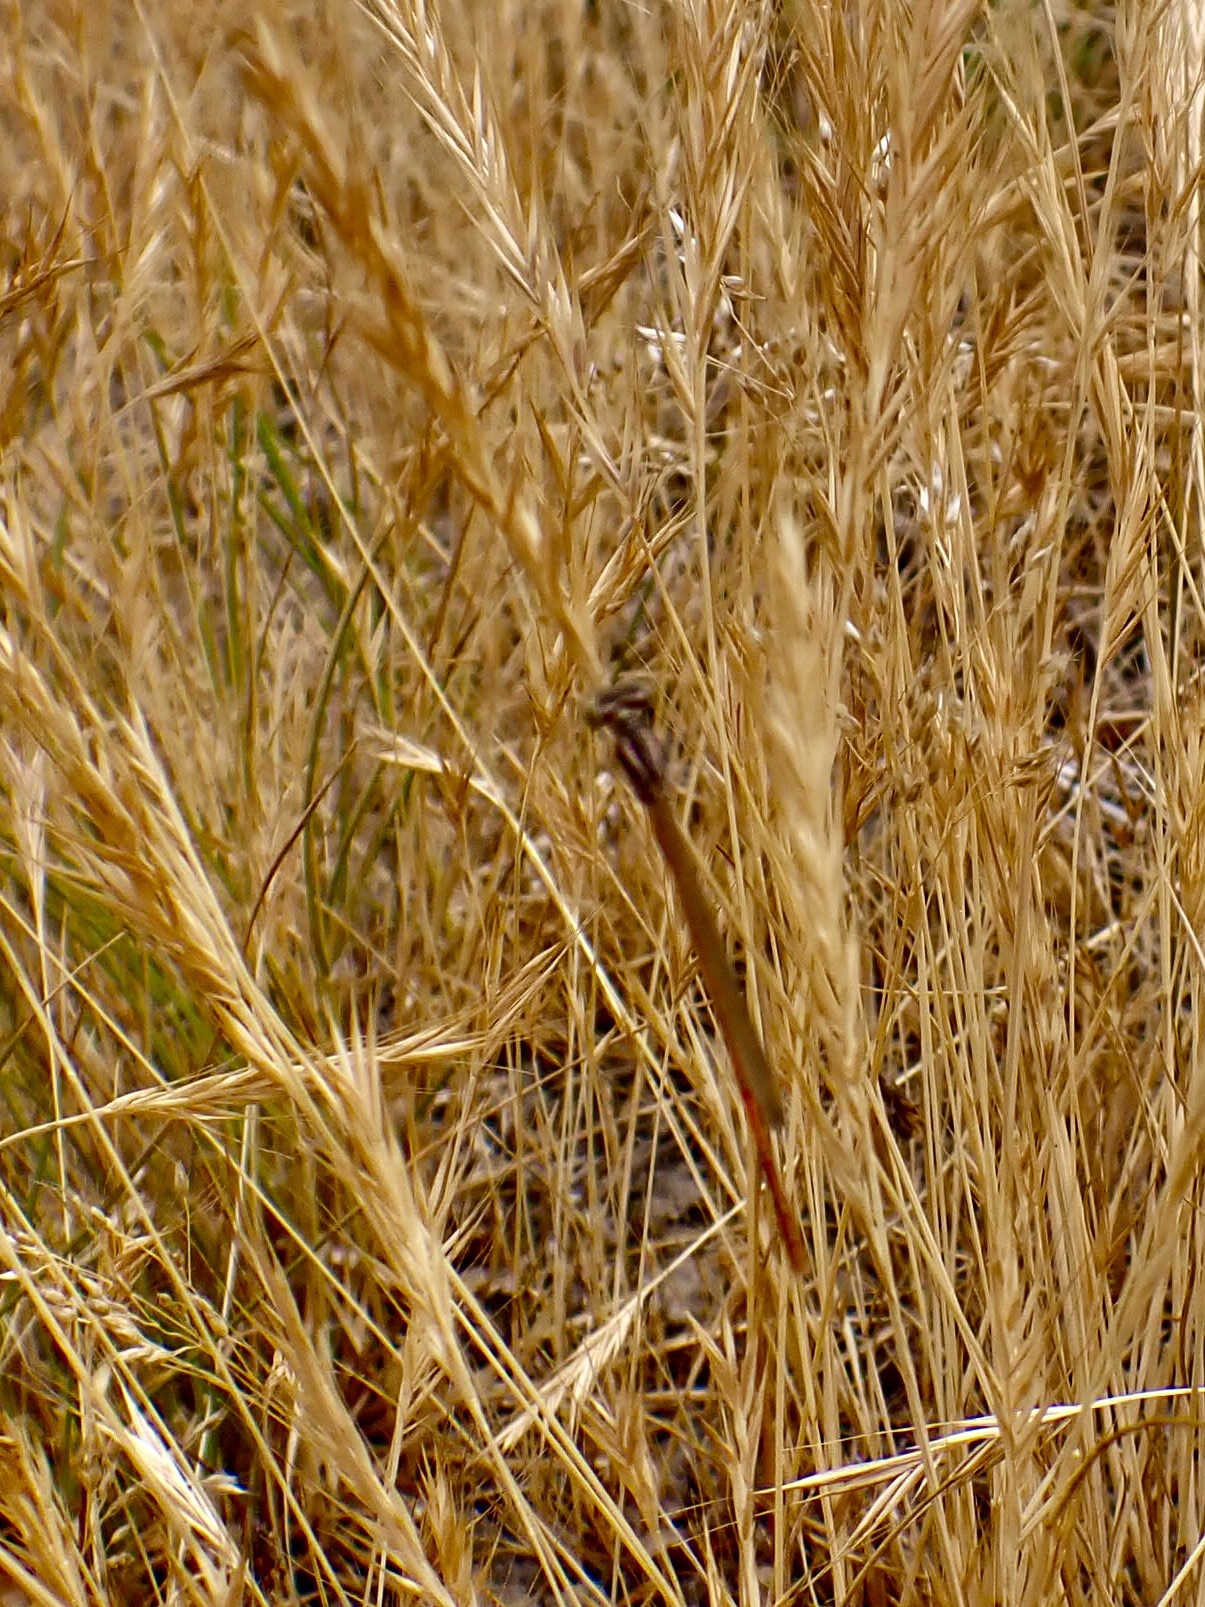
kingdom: Animalia
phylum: Arthropoda
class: Insecta
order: Odonata
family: Coenagrionidae
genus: Xanthocnemis
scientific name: Xanthocnemis zealandica
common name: Common redcoat damselfly
